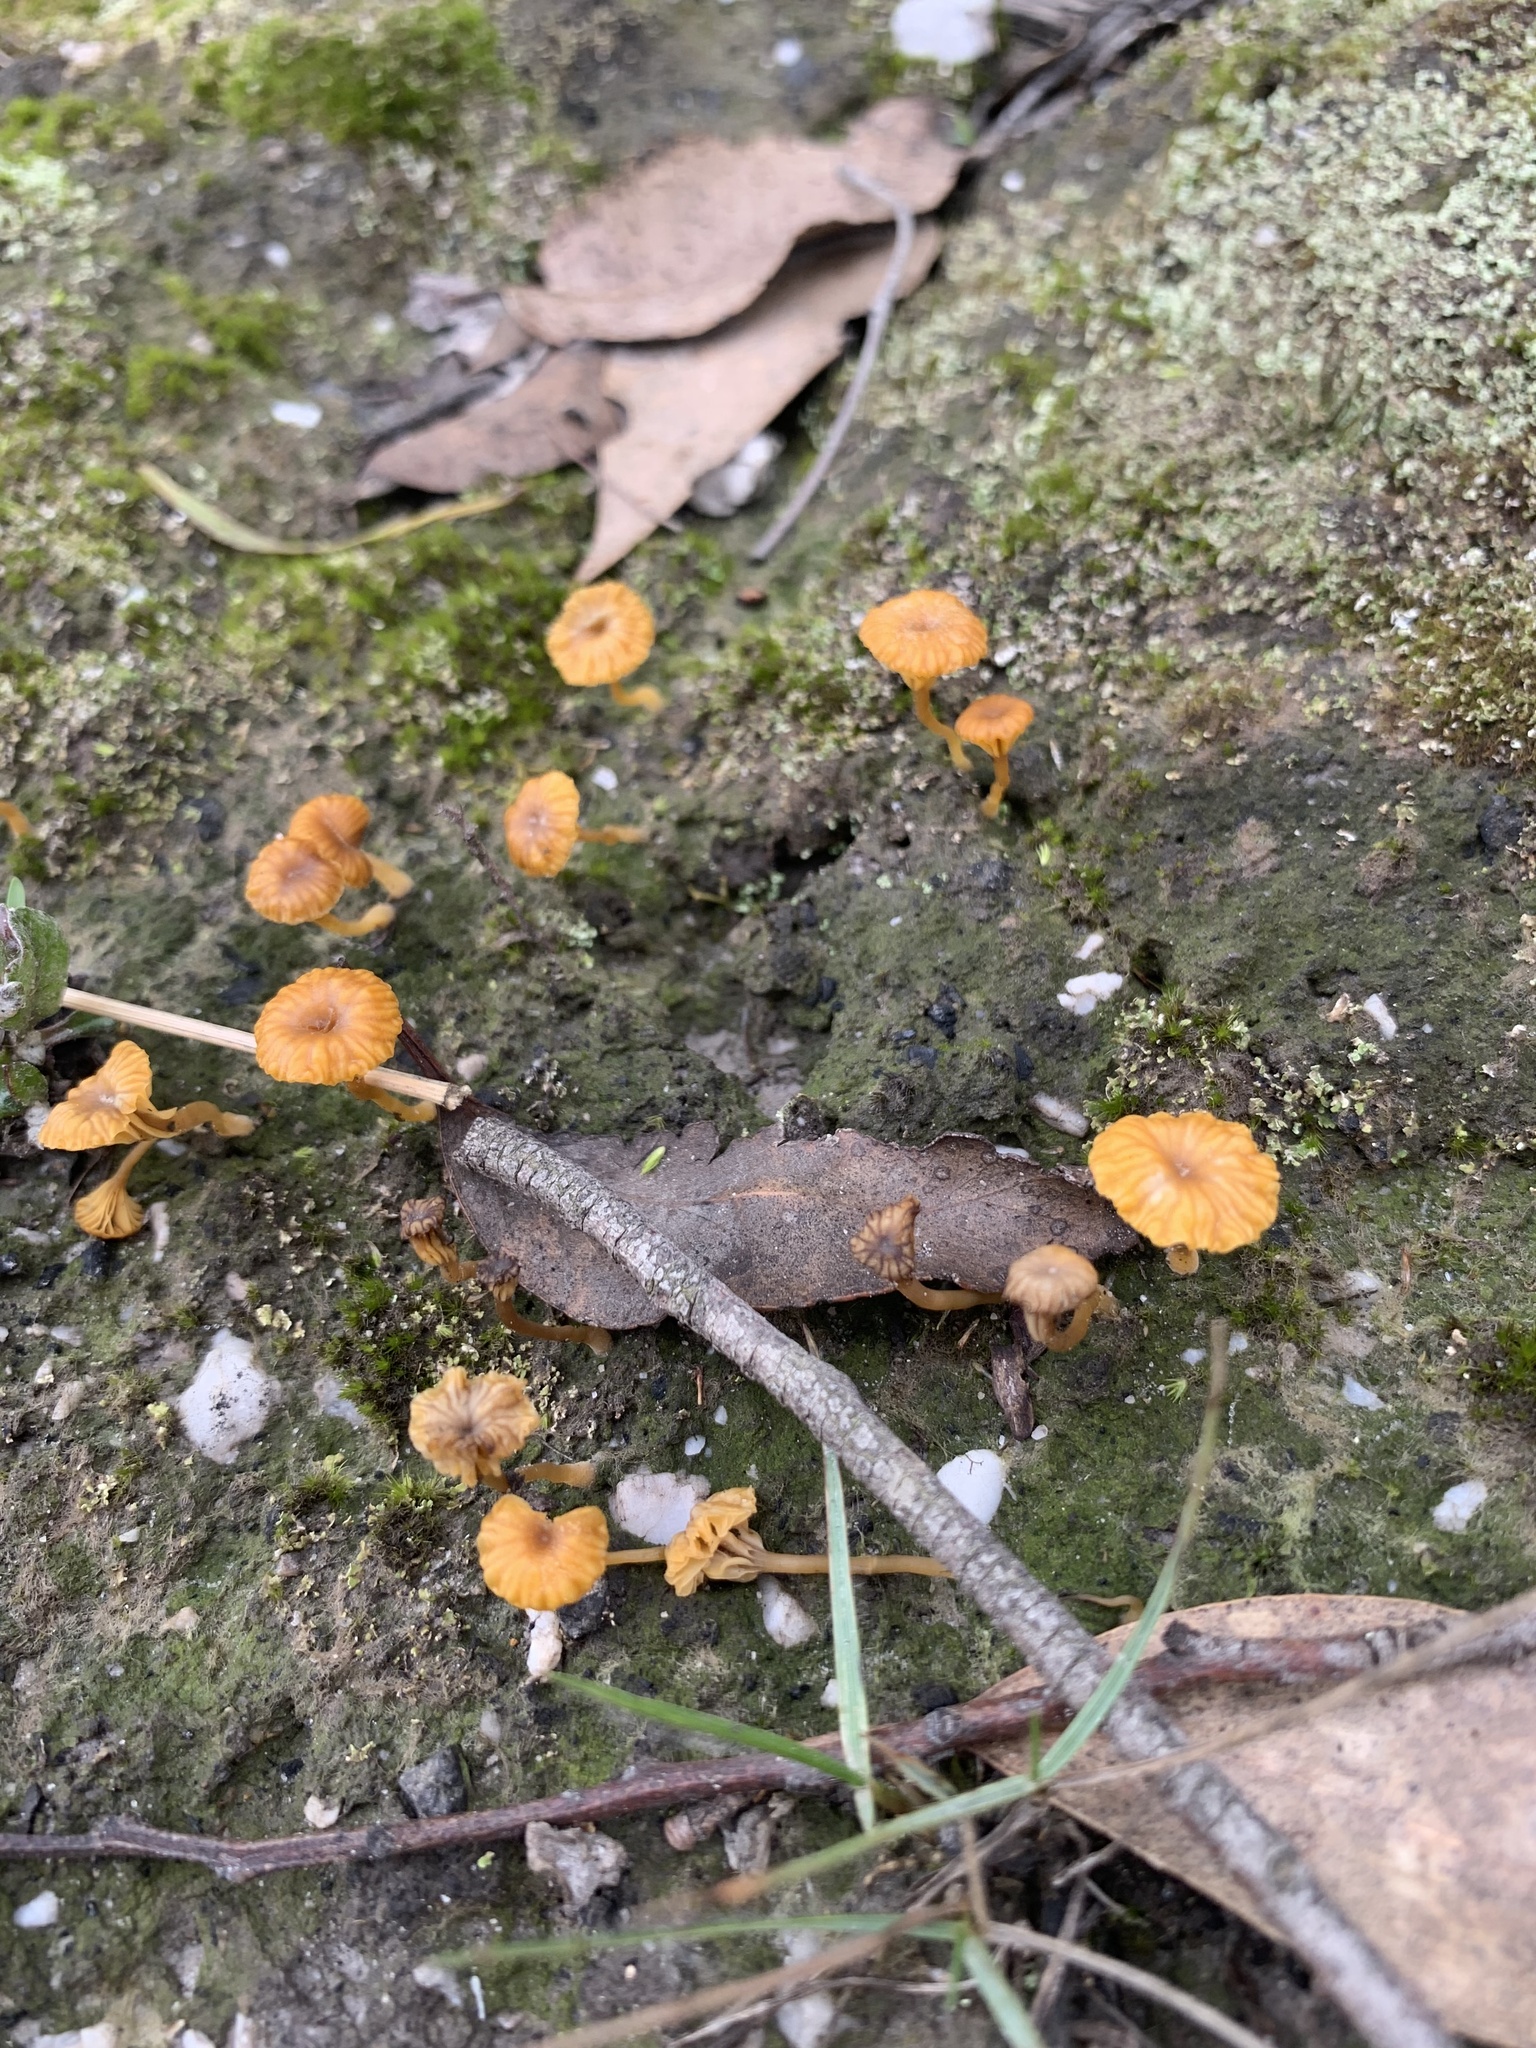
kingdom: Fungi
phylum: Basidiomycota
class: Agaricomycetes
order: Agaricales
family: Hygrophoraceae
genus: Lichenomphalia
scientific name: Lichenomphalia chromacea
